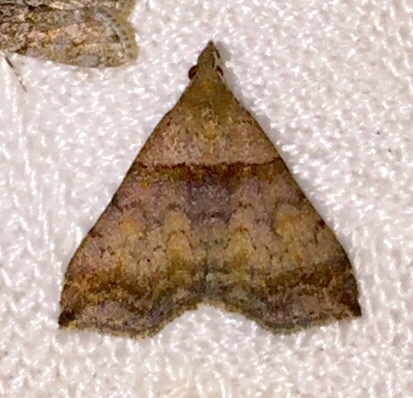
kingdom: Animalia
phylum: Arthropoda
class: Insecta
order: Lepidoptera
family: Erebidae
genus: Lascoria
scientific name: Lascoria ambigualis
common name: Ambiguous moth
